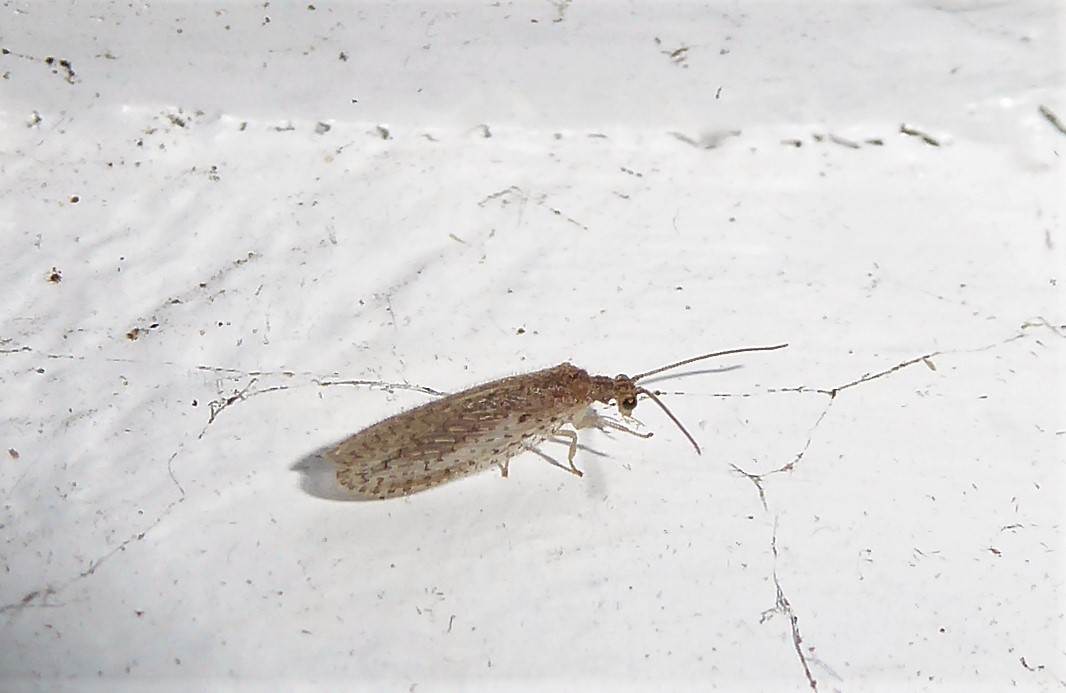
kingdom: Animalia
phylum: Arthropoda
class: Insecta
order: Neuroptera
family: Hemerobiidae
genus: Micromus
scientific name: Micromus tasmaniae
